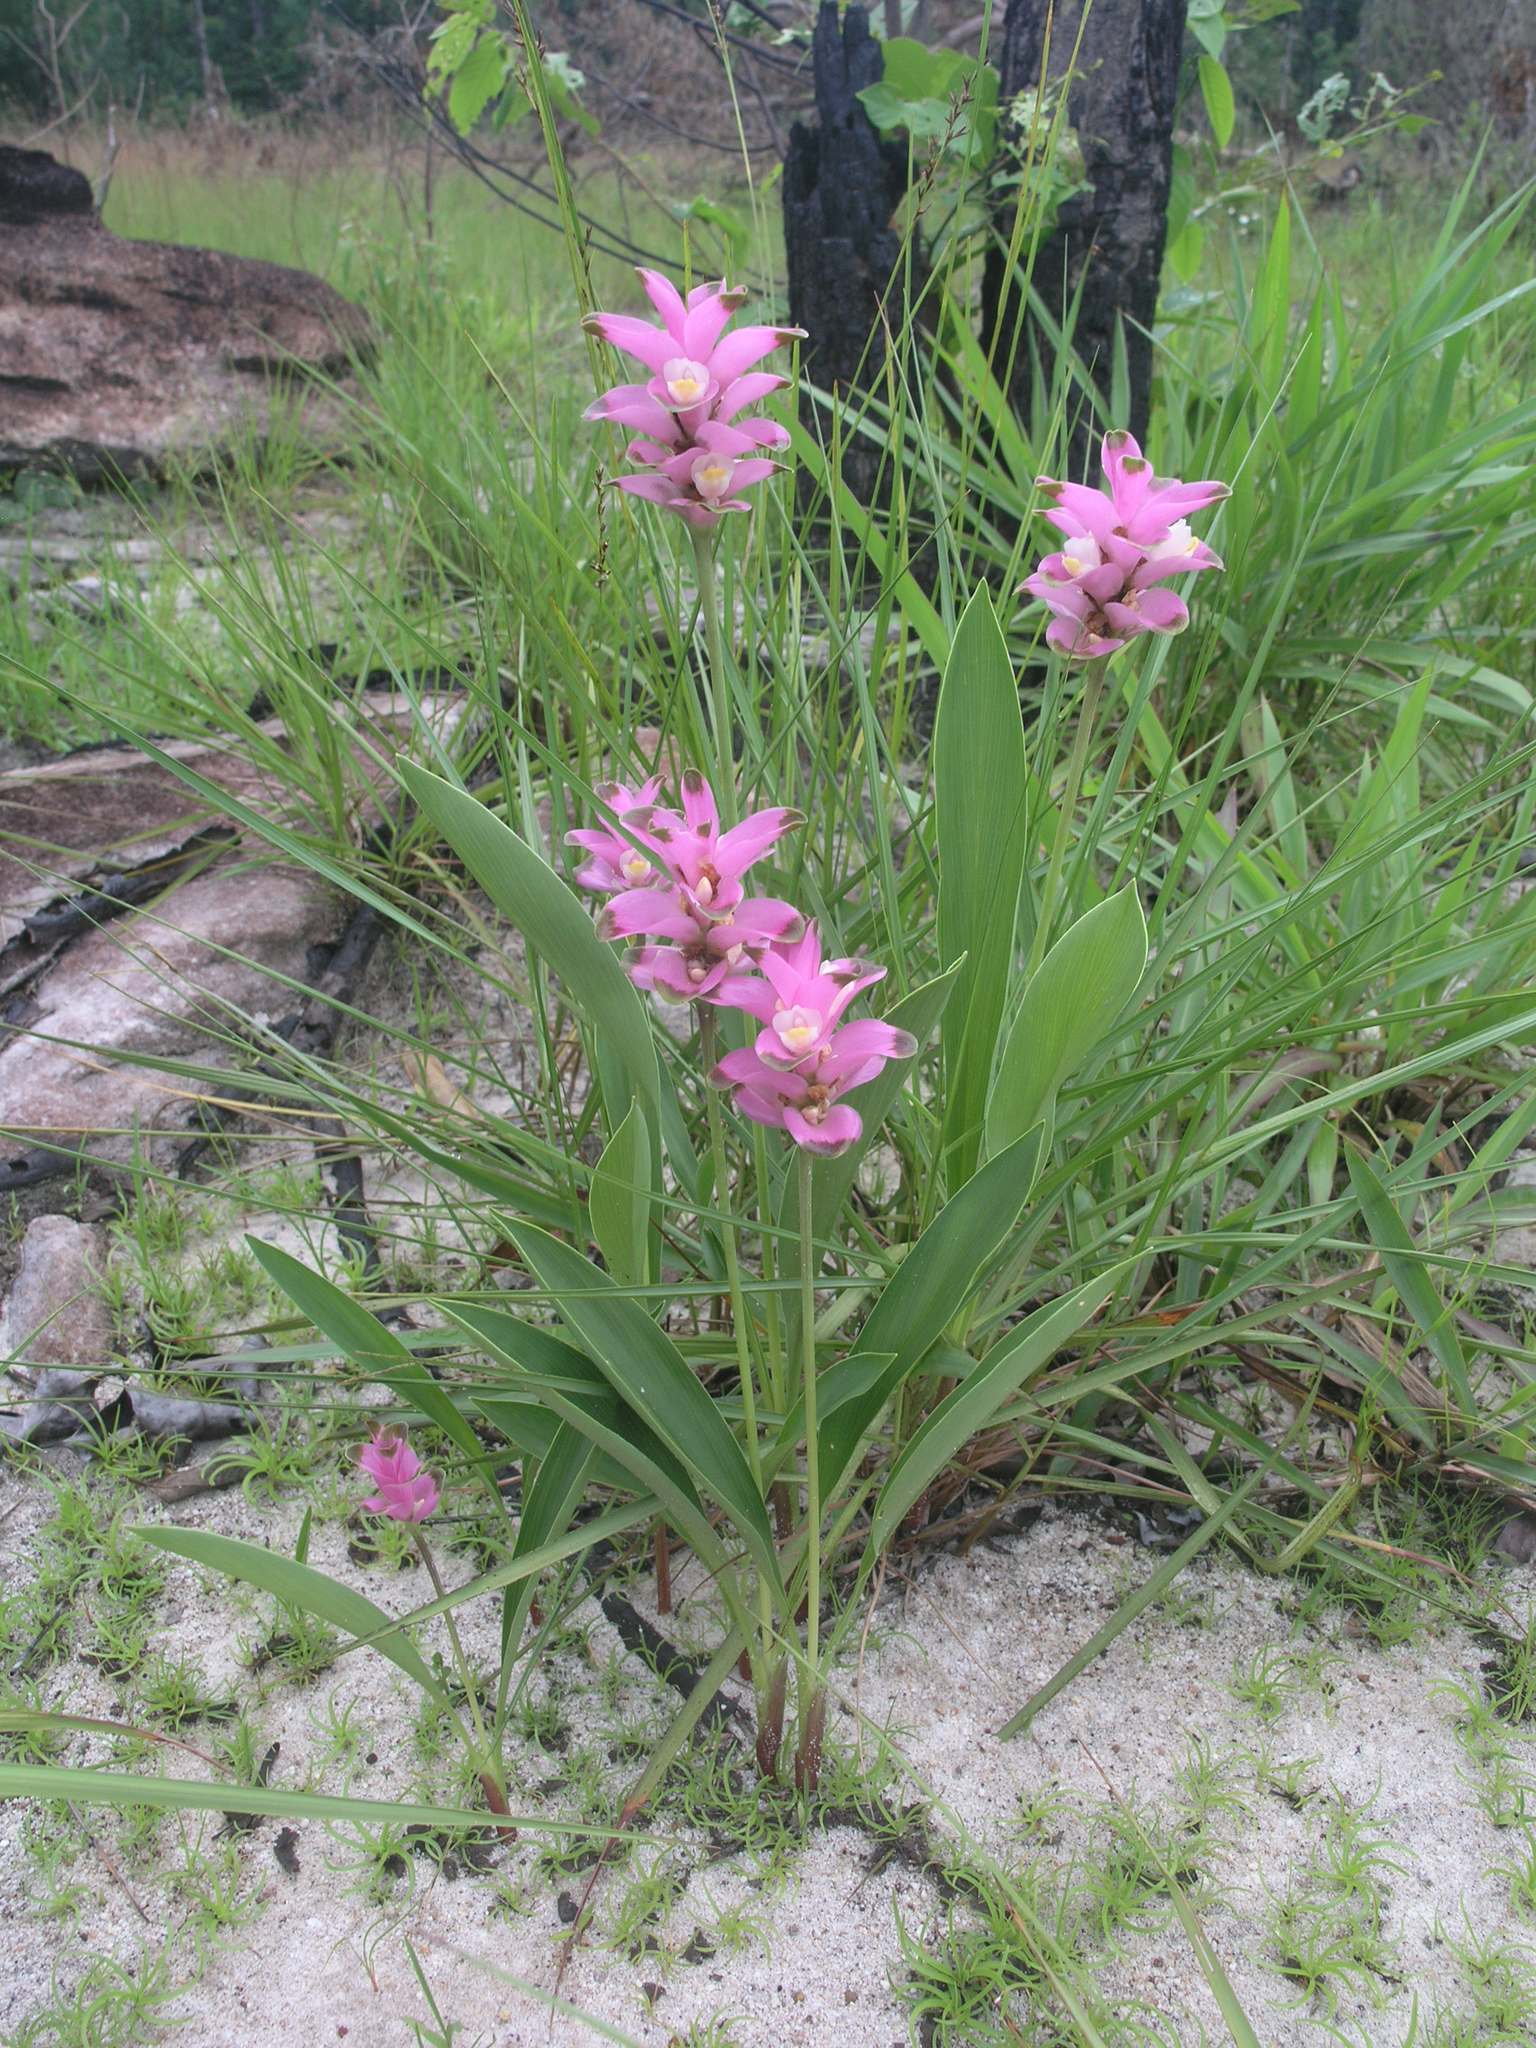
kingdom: Plantae
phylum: Tracheophyta
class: Liliopsida
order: Zingiberales
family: Zingiberaceae
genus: Curcuma
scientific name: Curcuma sparganiifolia
